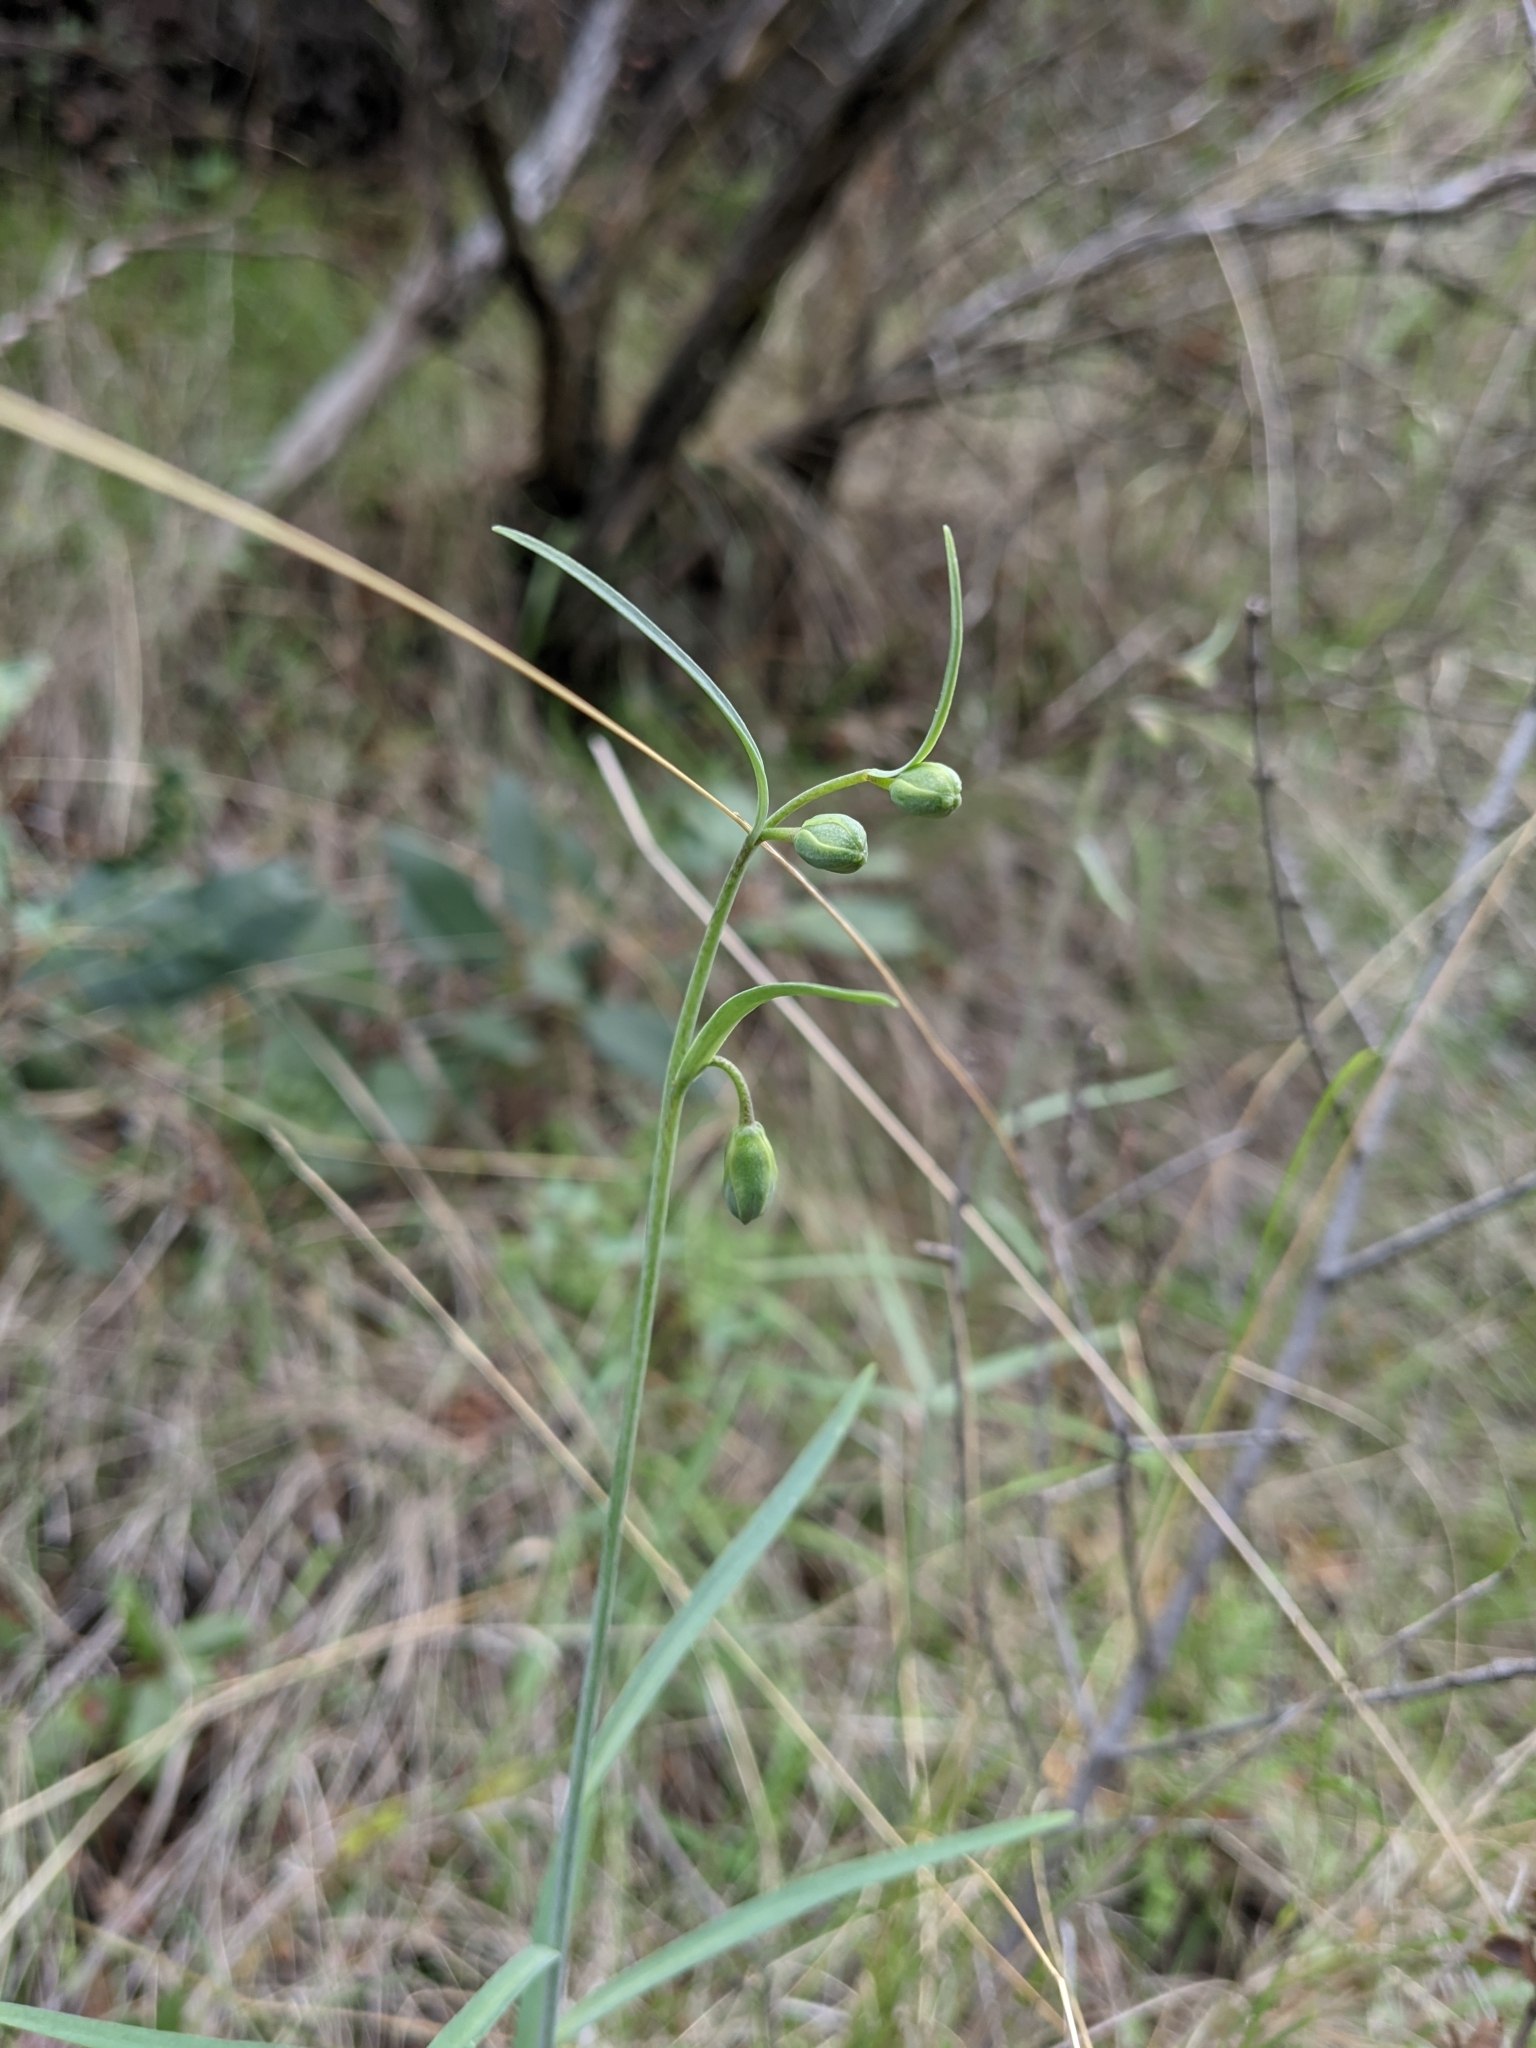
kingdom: Plantae
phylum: Tracheophyta
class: Liliopsida
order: Liliales
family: Liliaceae
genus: Fritillaria
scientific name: Fritillaria ojaiensis
